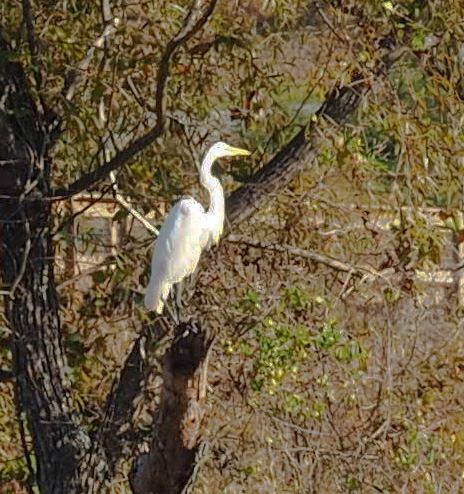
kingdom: Animalia
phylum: Chordata
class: Aves
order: Pelecaniformes
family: Ardeidae
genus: Ardea
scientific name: Ardea alba
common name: Great egret
